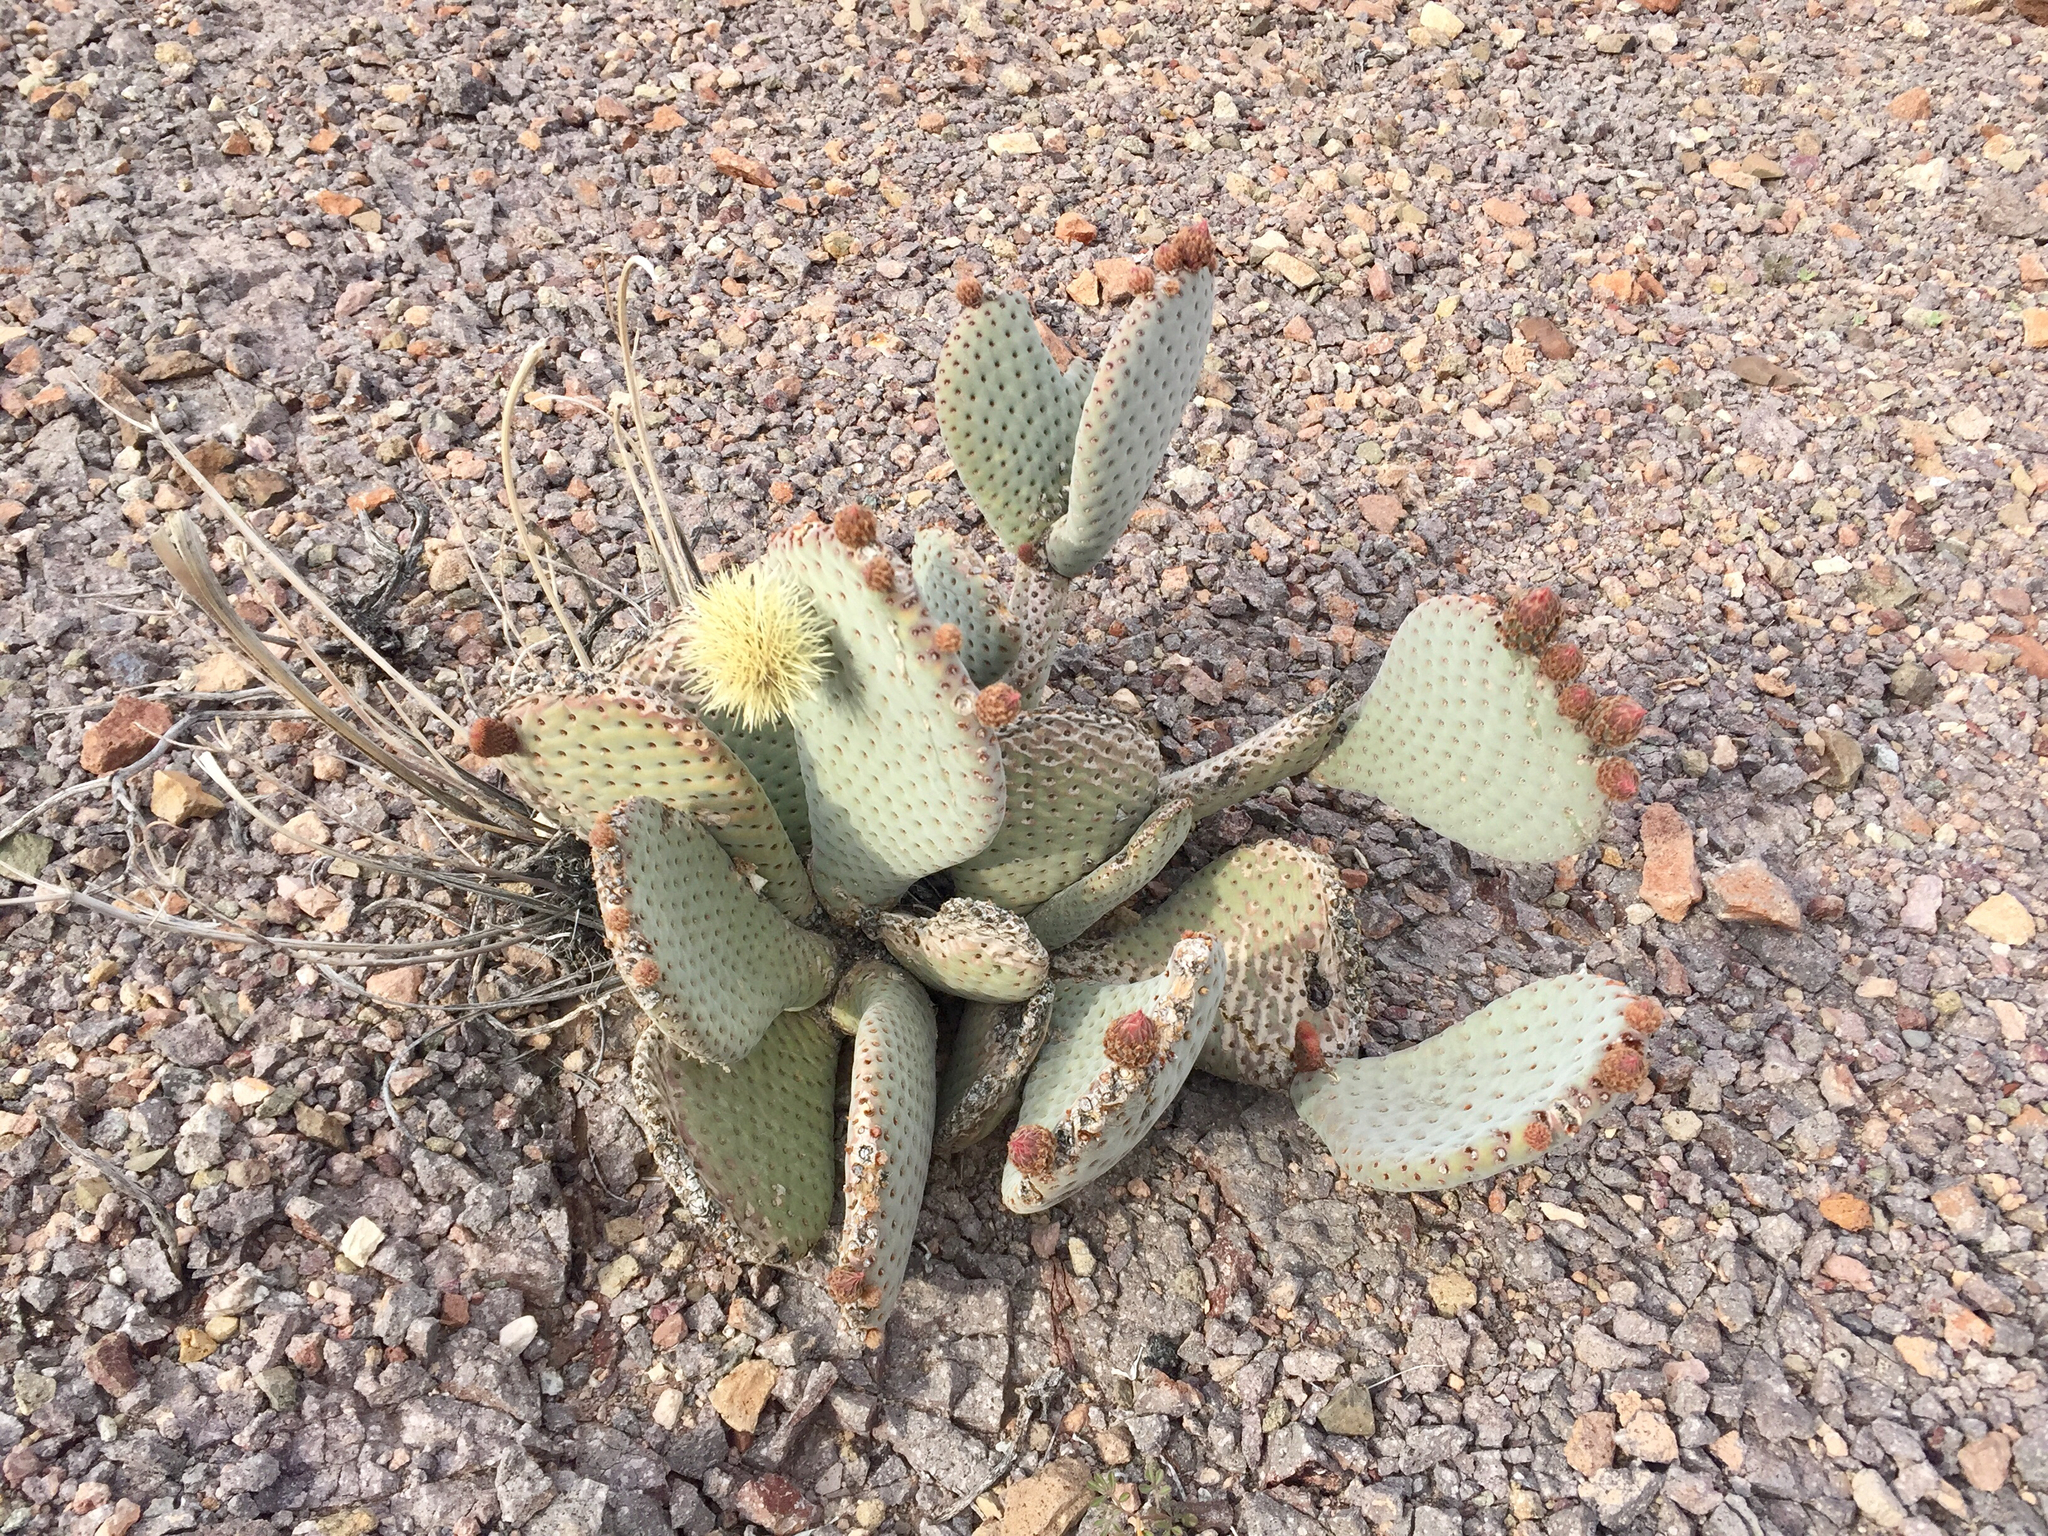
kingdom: Plantae
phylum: Tracheophyta
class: Magnoliopsida
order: Caryophyllales
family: Cactaceae
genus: Opuntia
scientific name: Opuntia basilaris
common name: Beavertail prickly-pear
